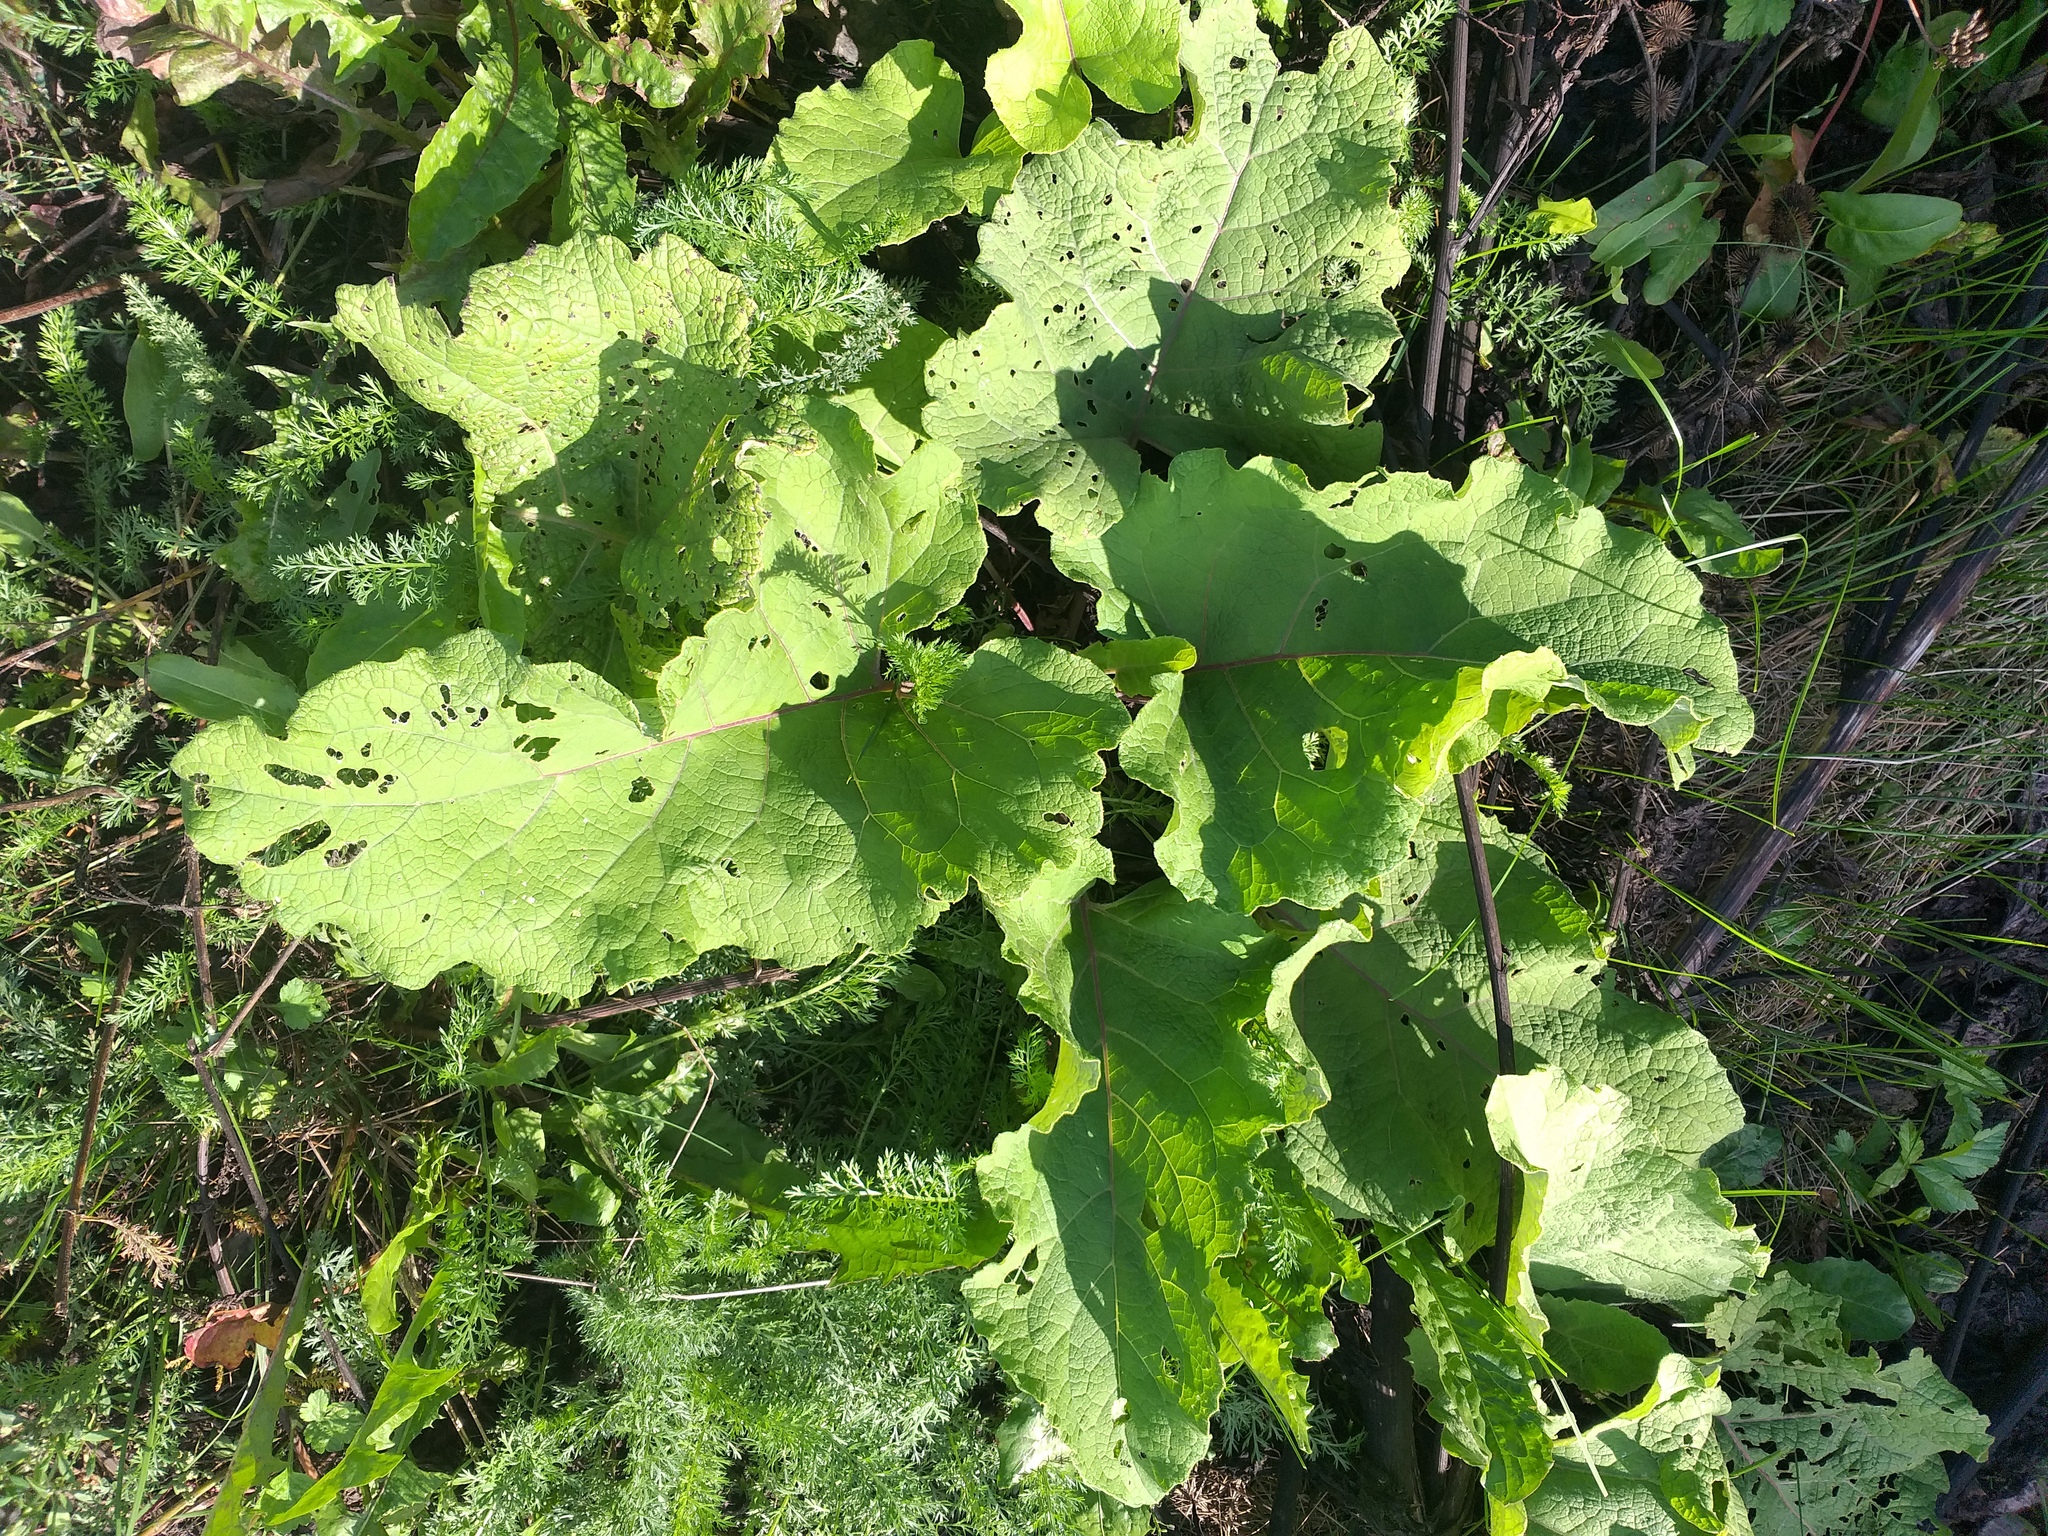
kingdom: Plantae
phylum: Tracheophyta
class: Magnoliopsida
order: Asterales
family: Asteraceae
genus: Arctium
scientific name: Arctium minus
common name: Lesser burdock
